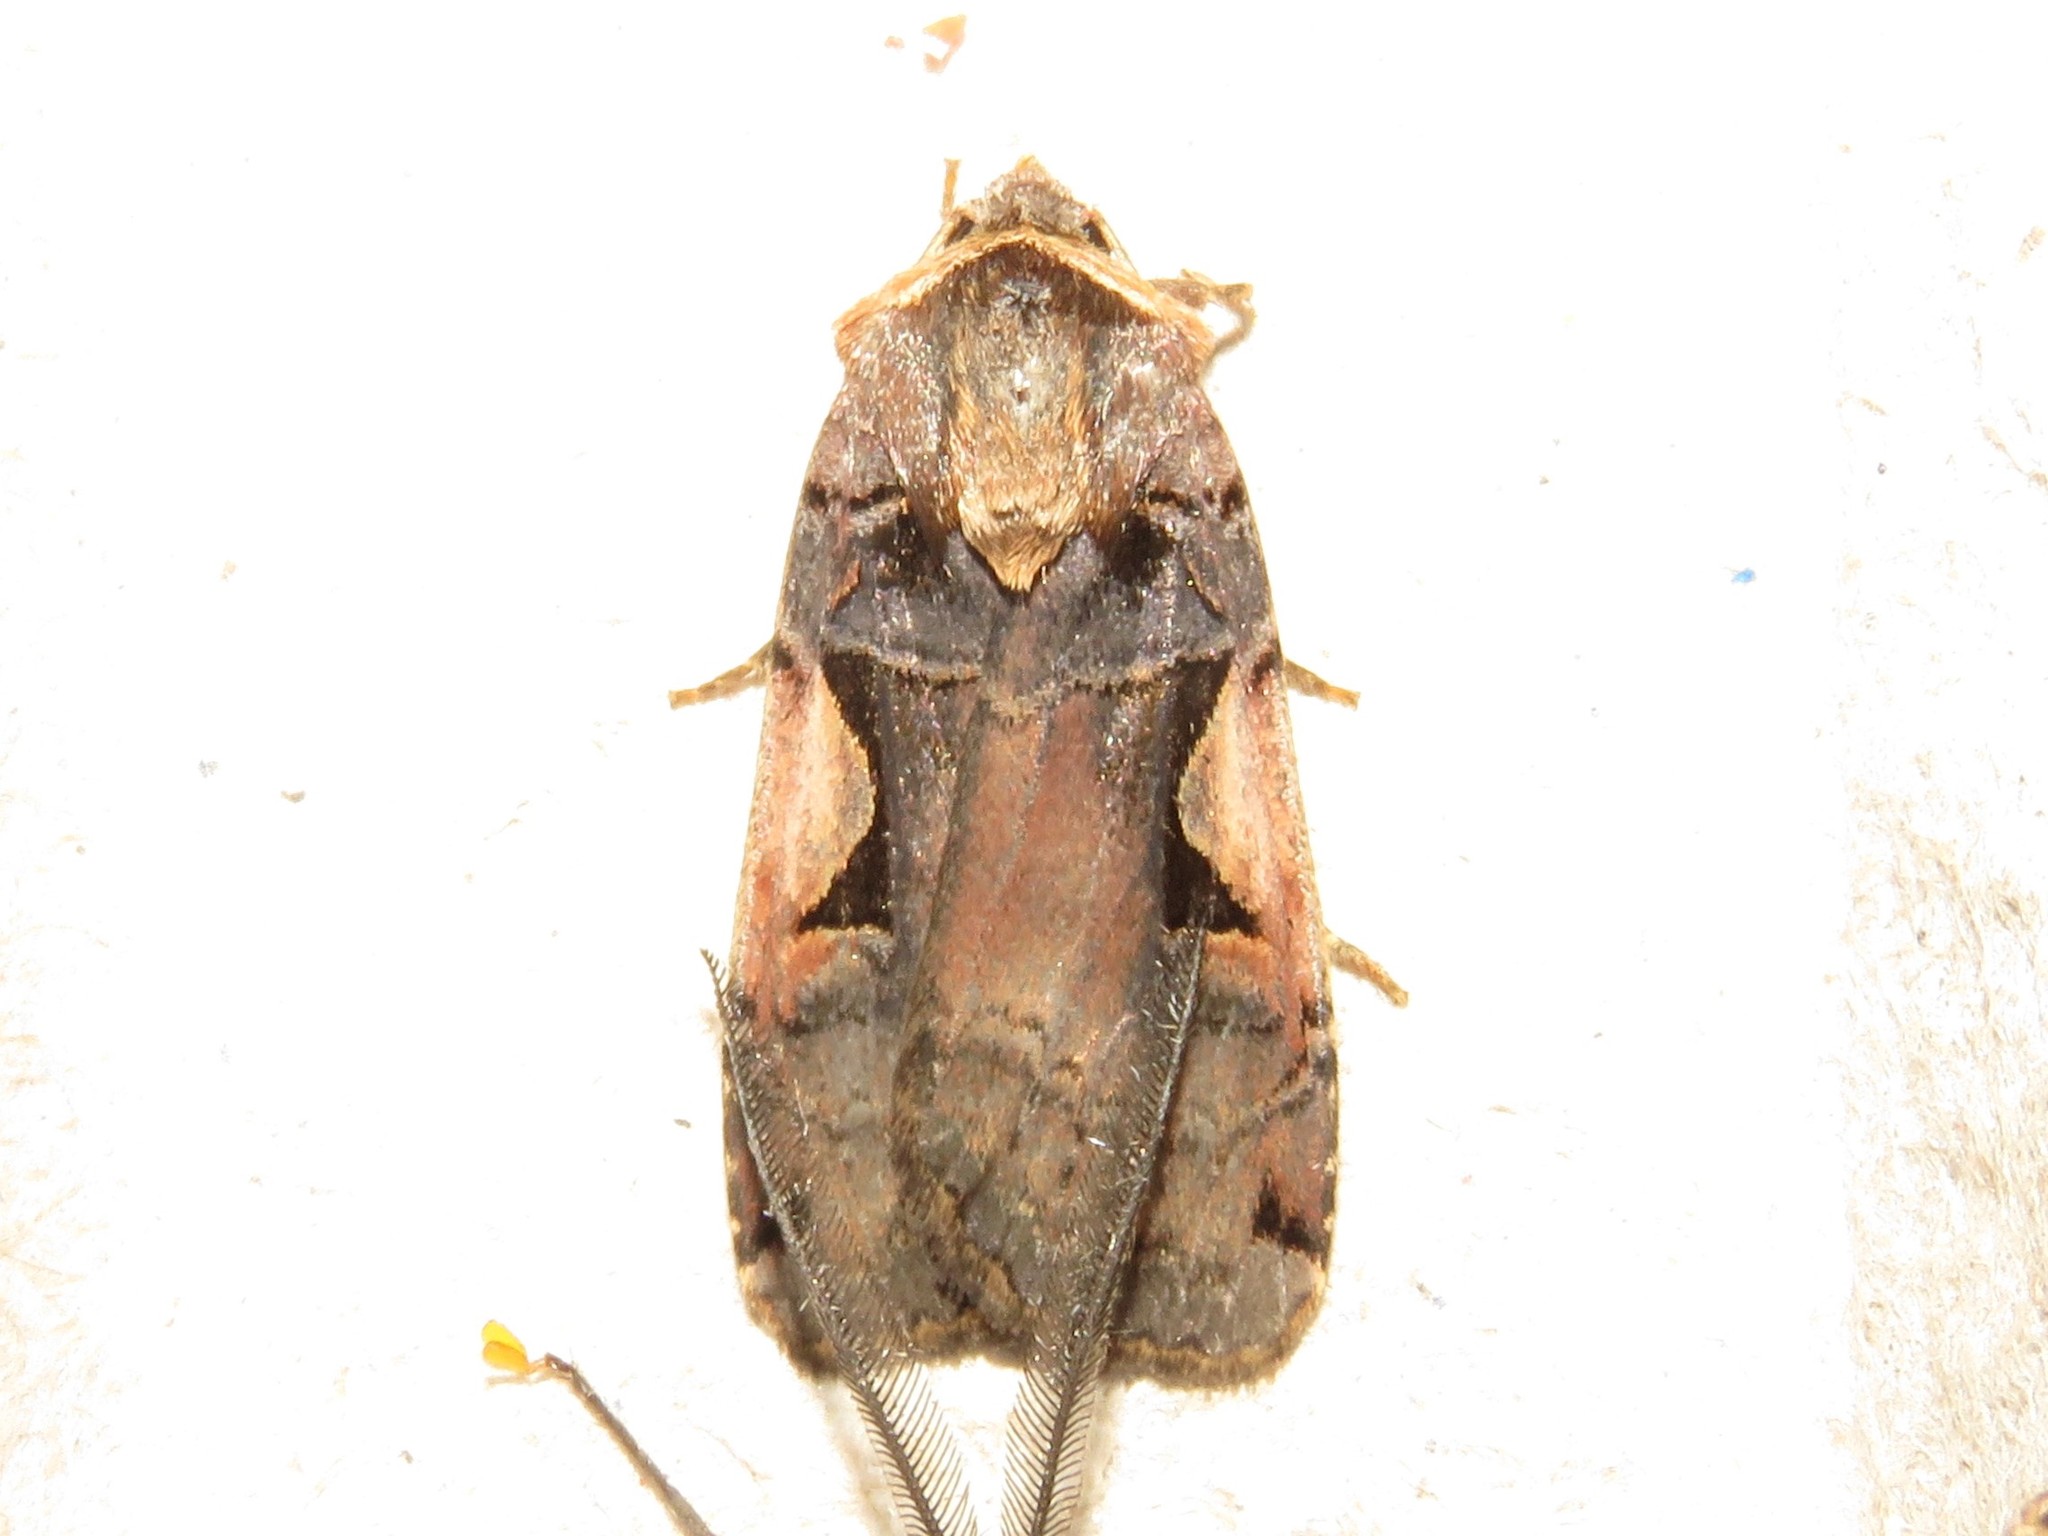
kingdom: Animalia
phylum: Arthropoda
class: Insecta
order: Lepidoptera
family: Noctuidae
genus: Xestia
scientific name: Xestia
